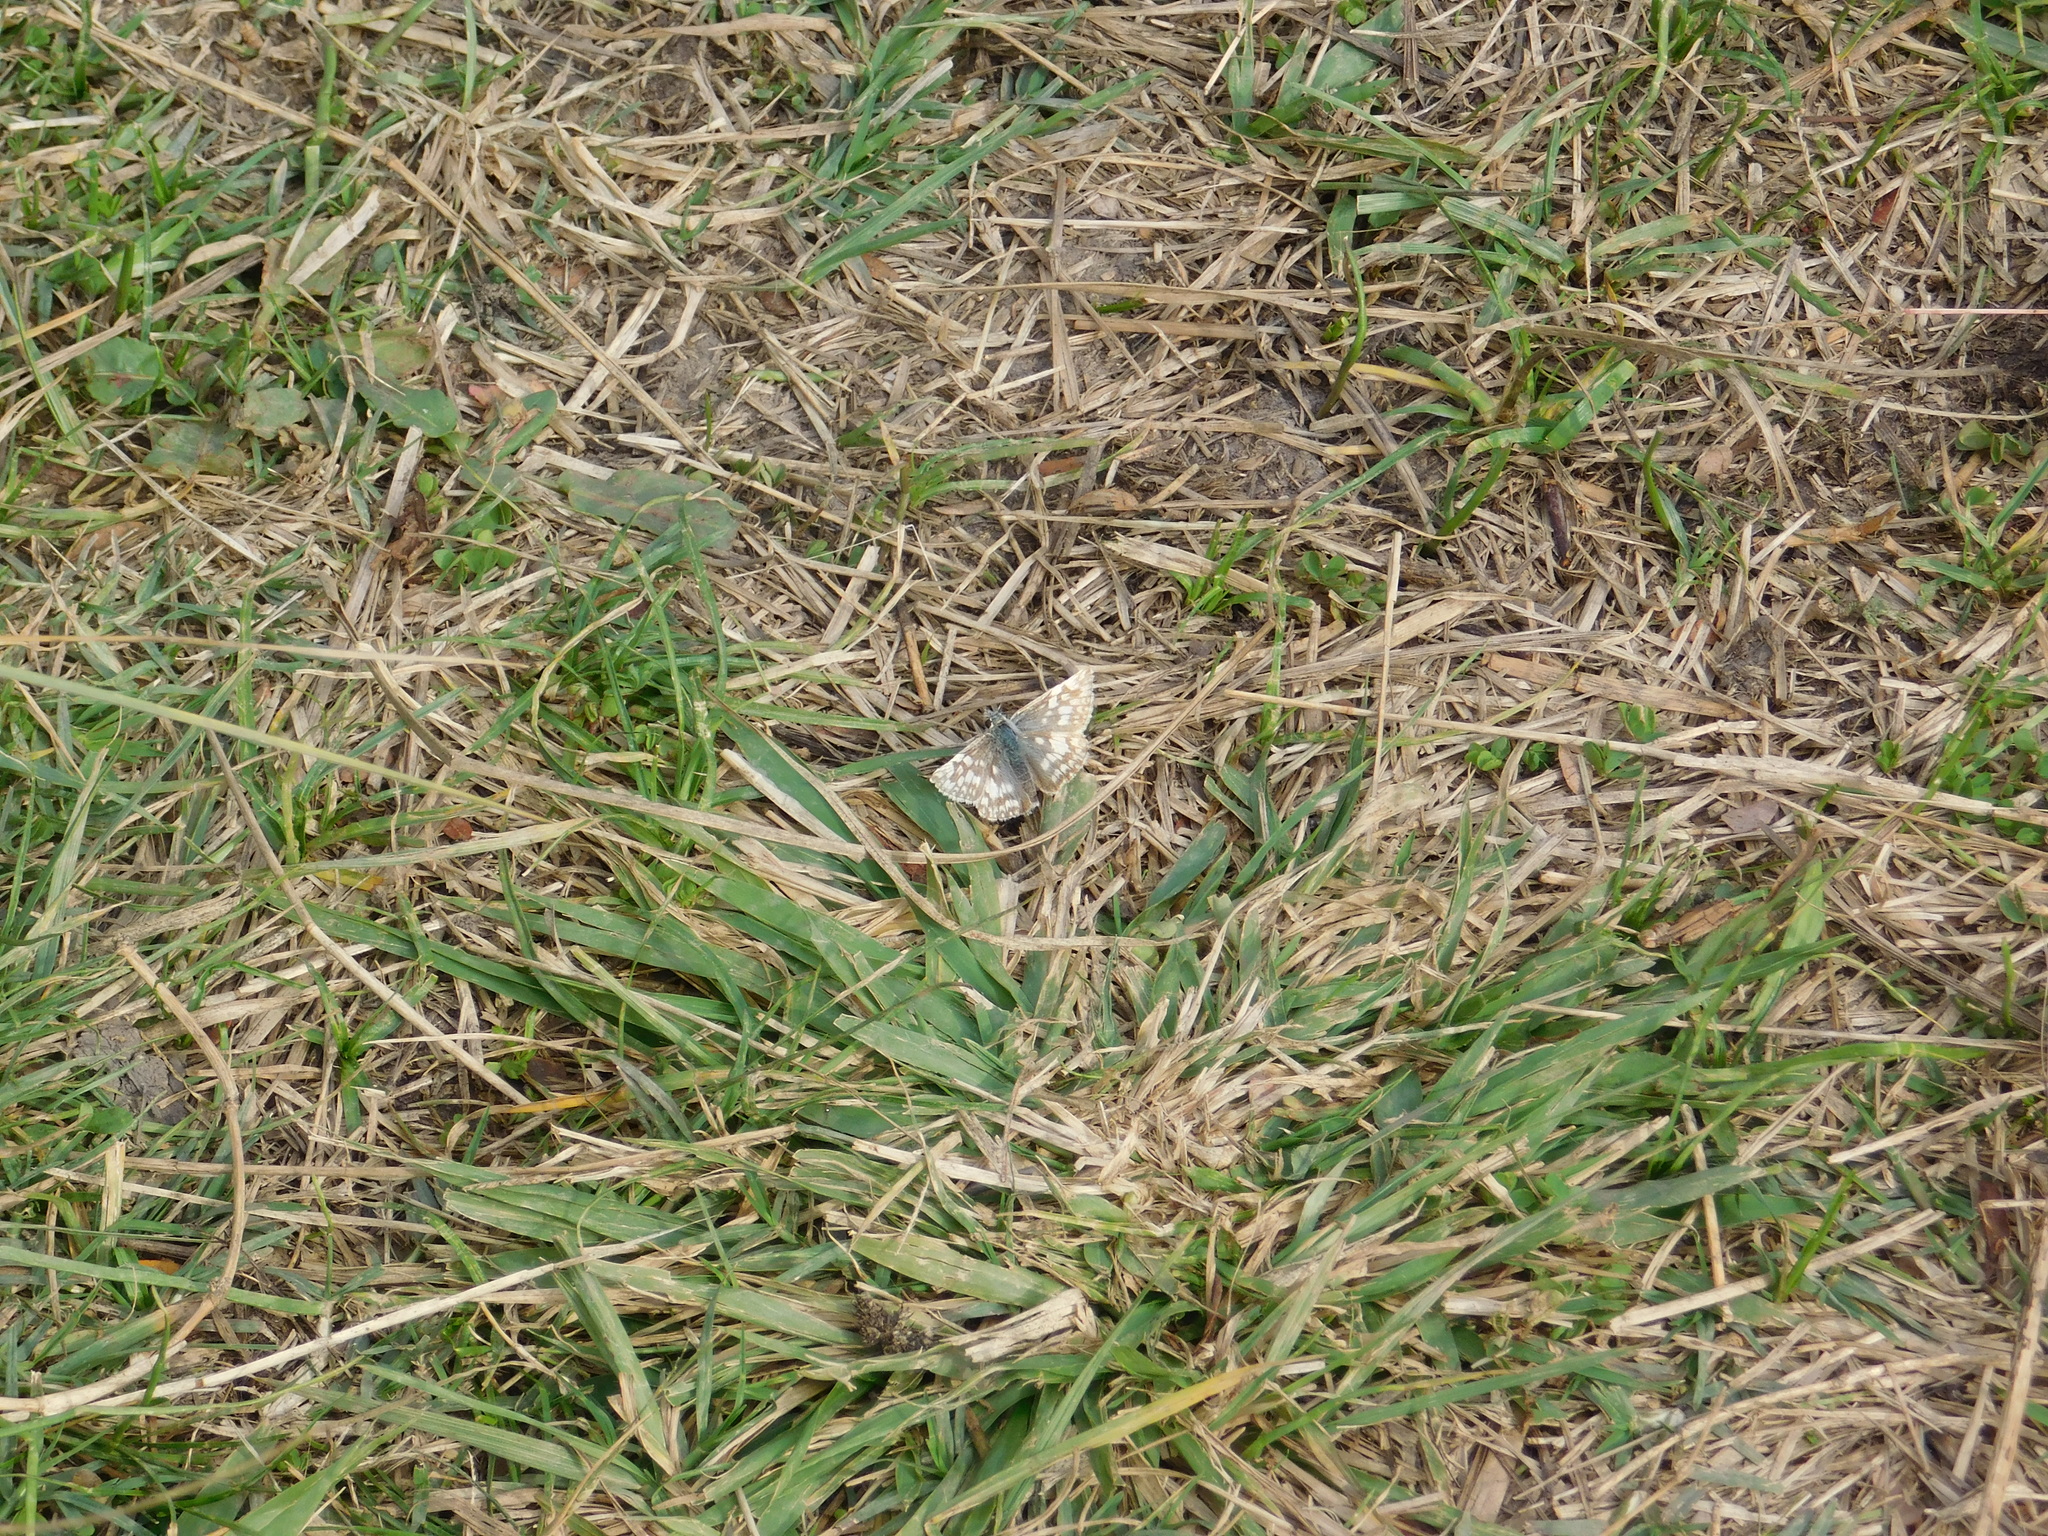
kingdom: Animalia
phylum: Arthropoda
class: Insecta
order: Lepidoptera
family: Hesperiidae
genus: Heliopetes
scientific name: Heliopetes americanus
